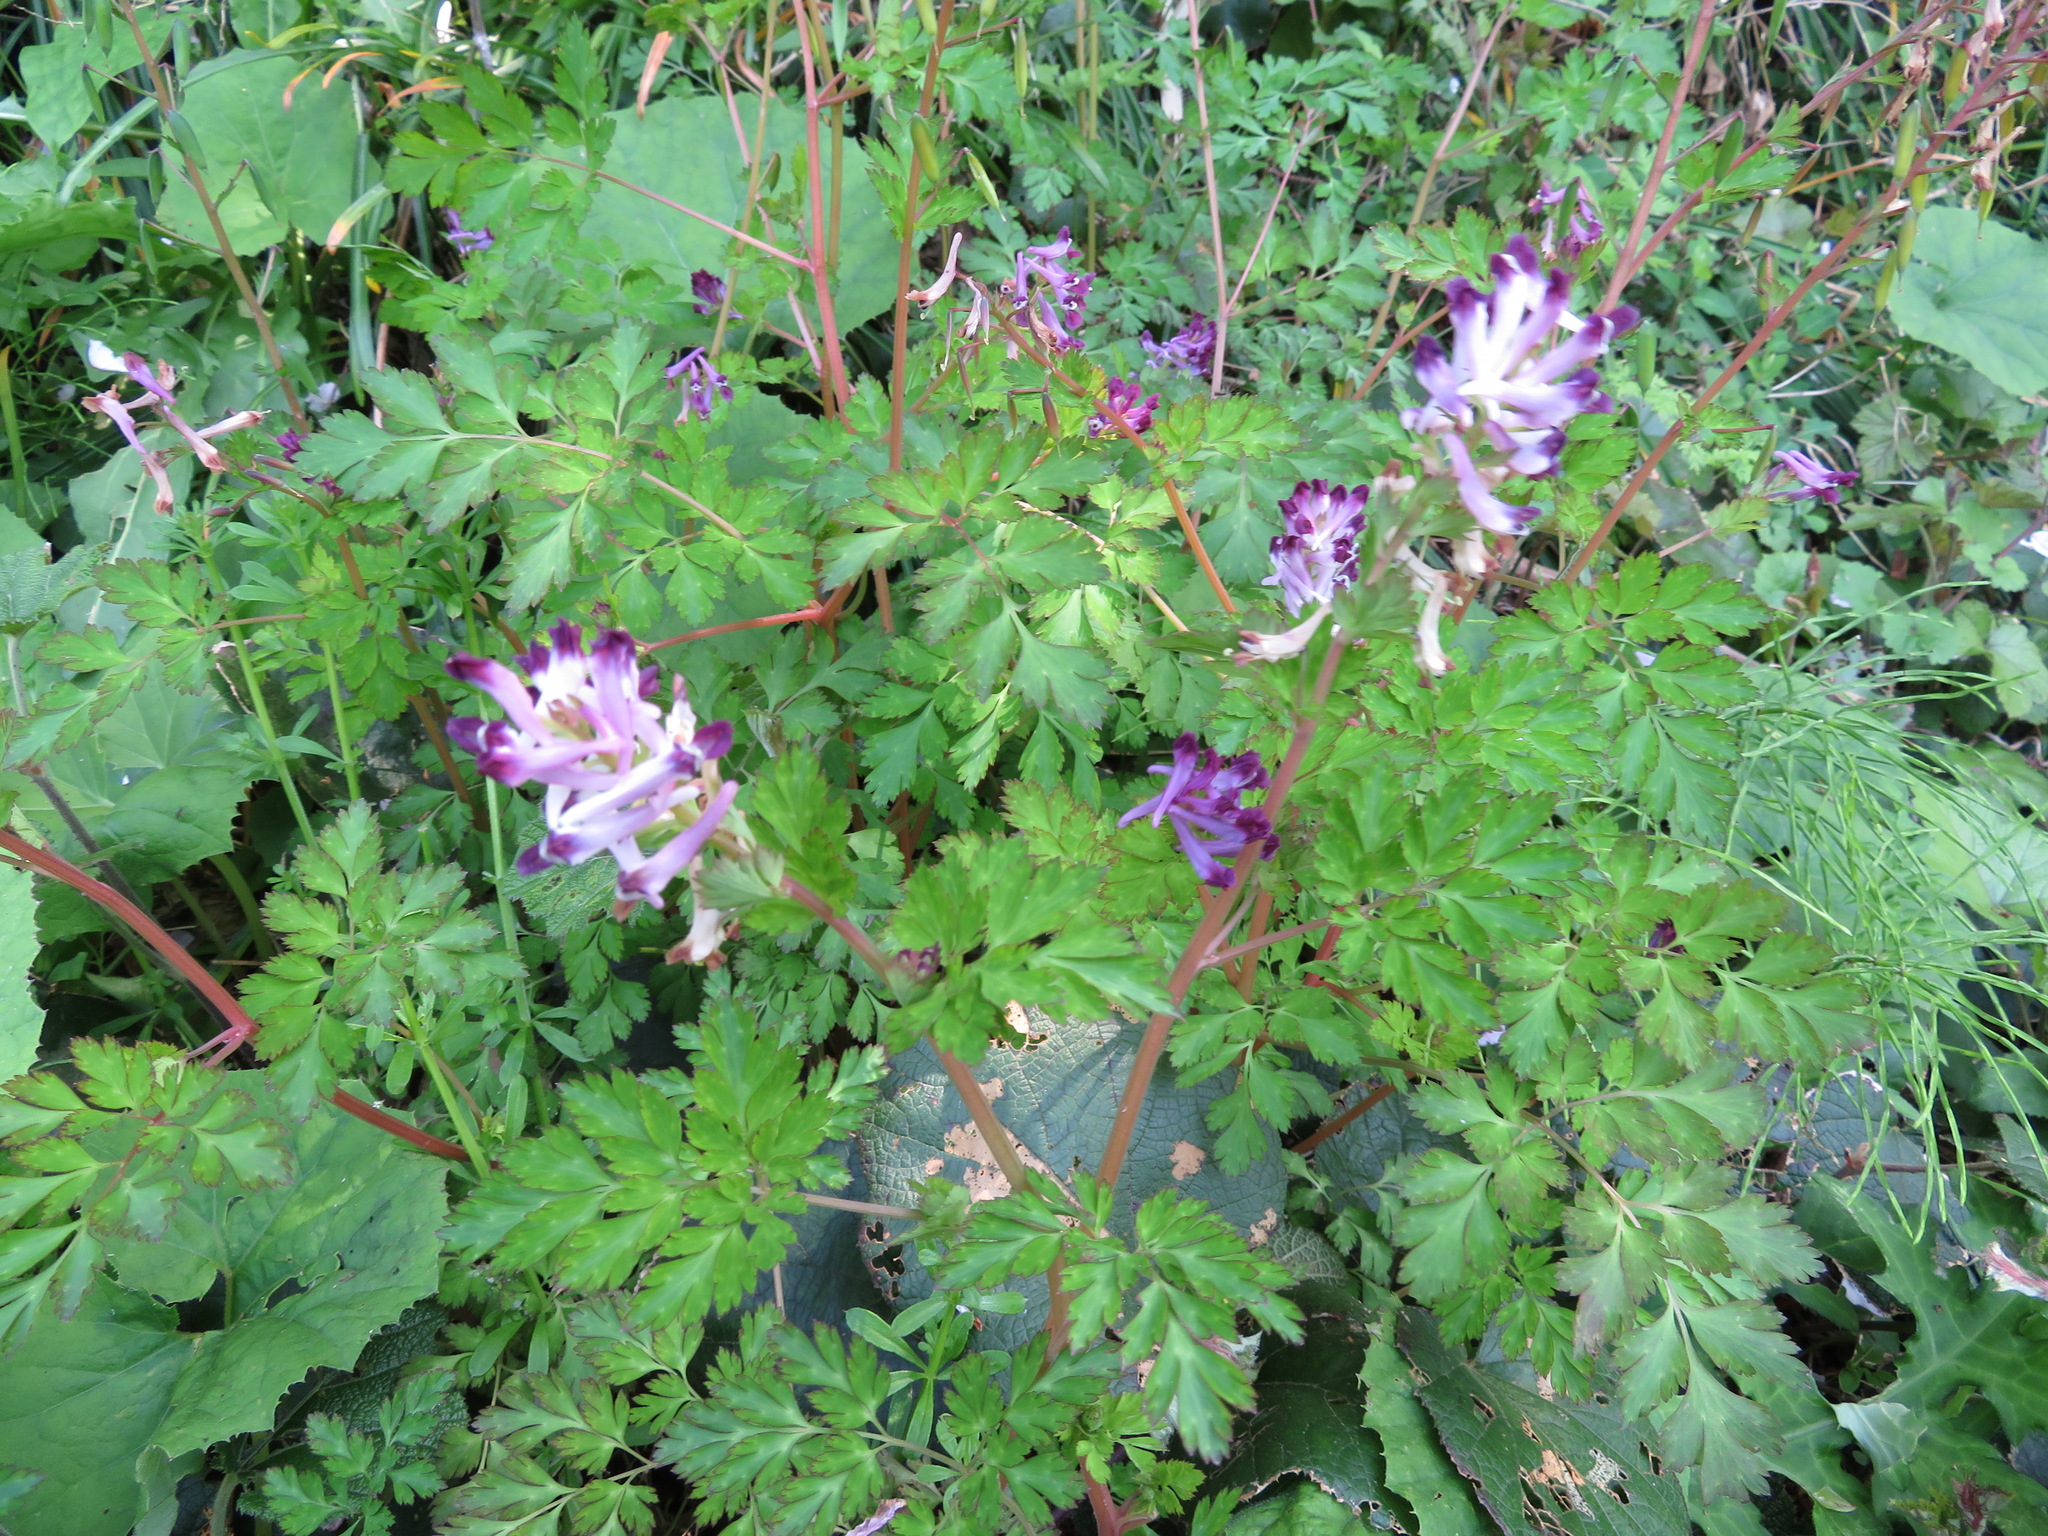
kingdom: Plantae
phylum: Tracheophyta
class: Magnoliopsida
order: Ranunculales
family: Papaveraceae
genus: Corydalis
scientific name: Corydalis incisa
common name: Incised fumewort
